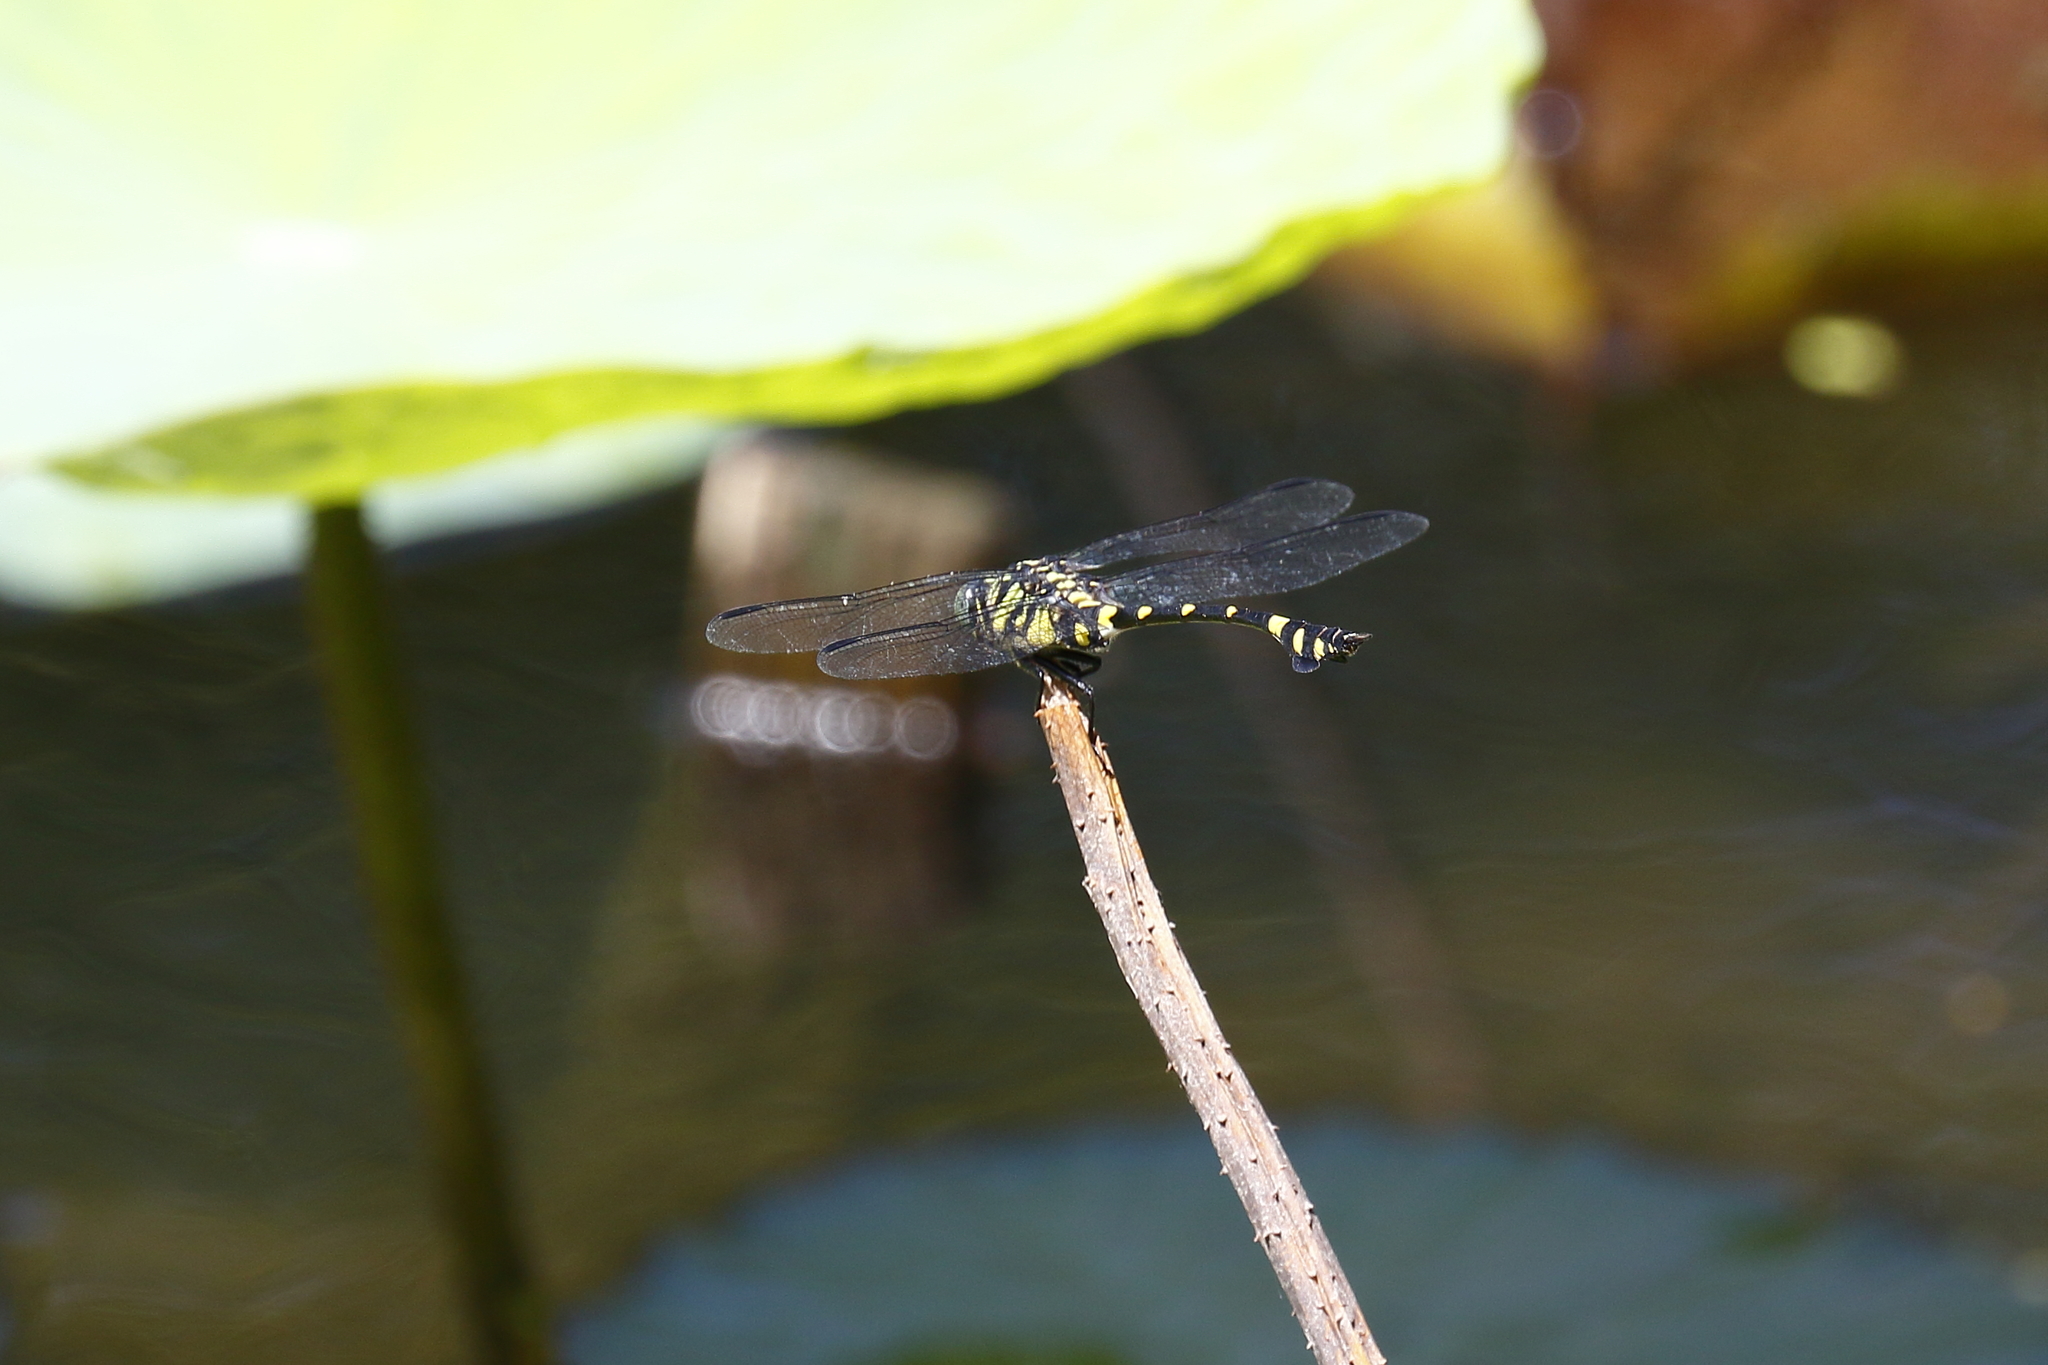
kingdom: Animalia
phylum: Arthropoda
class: Insecta
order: Odonata
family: Gomphidae
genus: Ictinogomphus
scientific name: Ictinogomphus rapax
